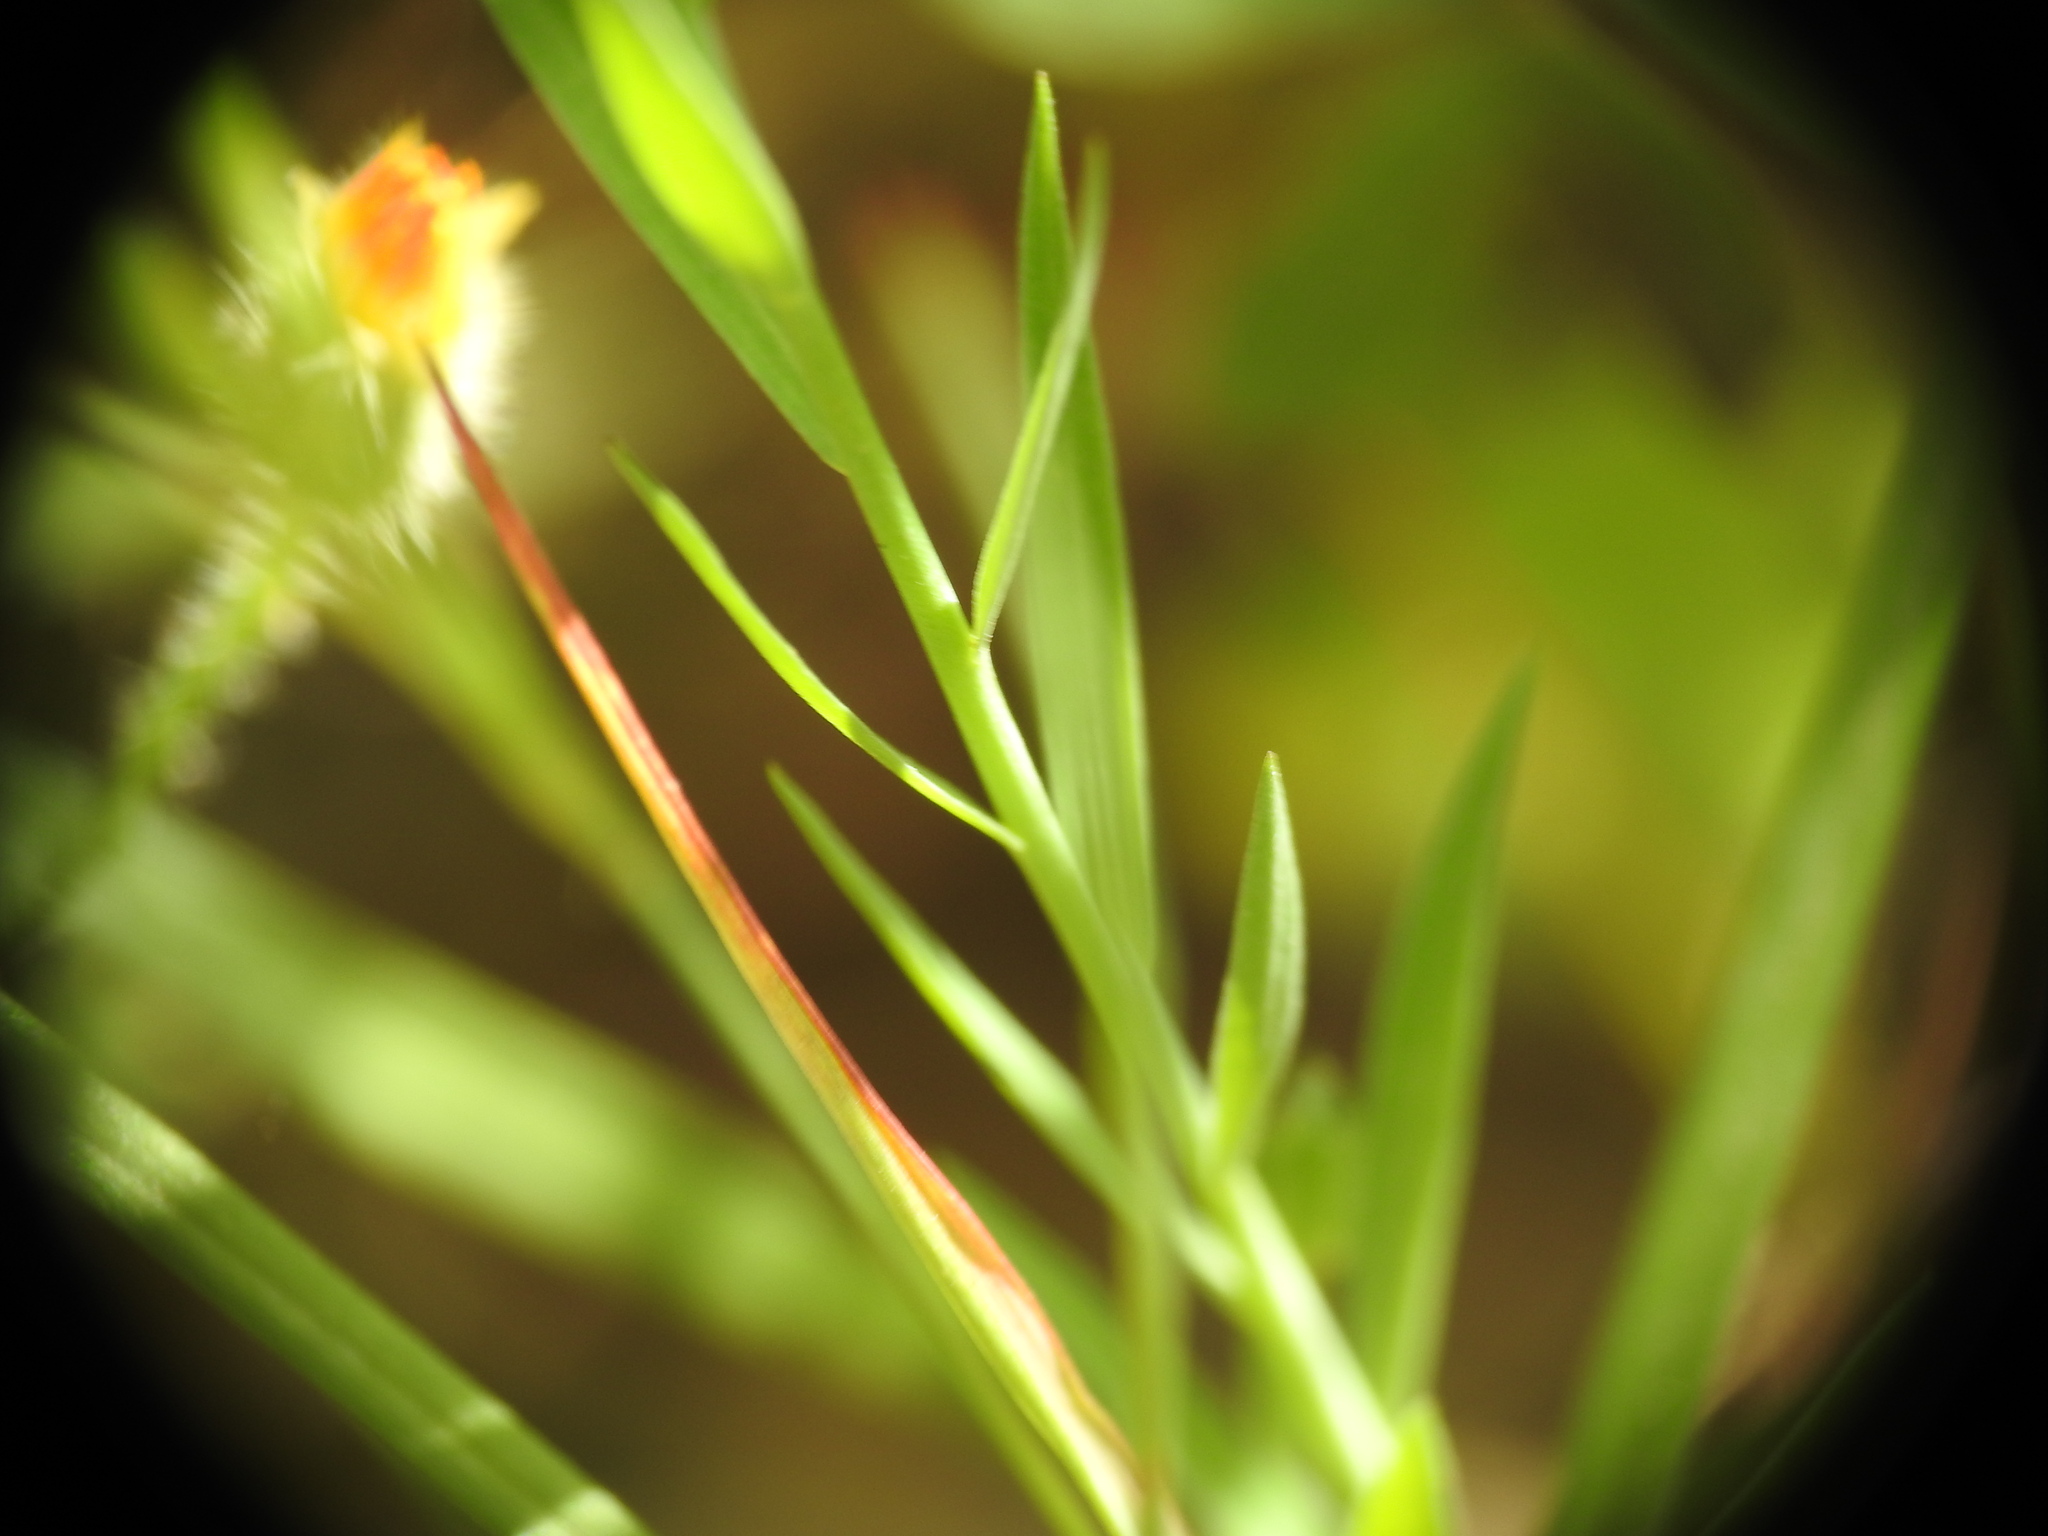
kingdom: Plantae
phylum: Tracheophyta
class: Magnoliopsida
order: Malpighiales
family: Linaceae
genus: Linum
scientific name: Linum bienne
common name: Pale flax
